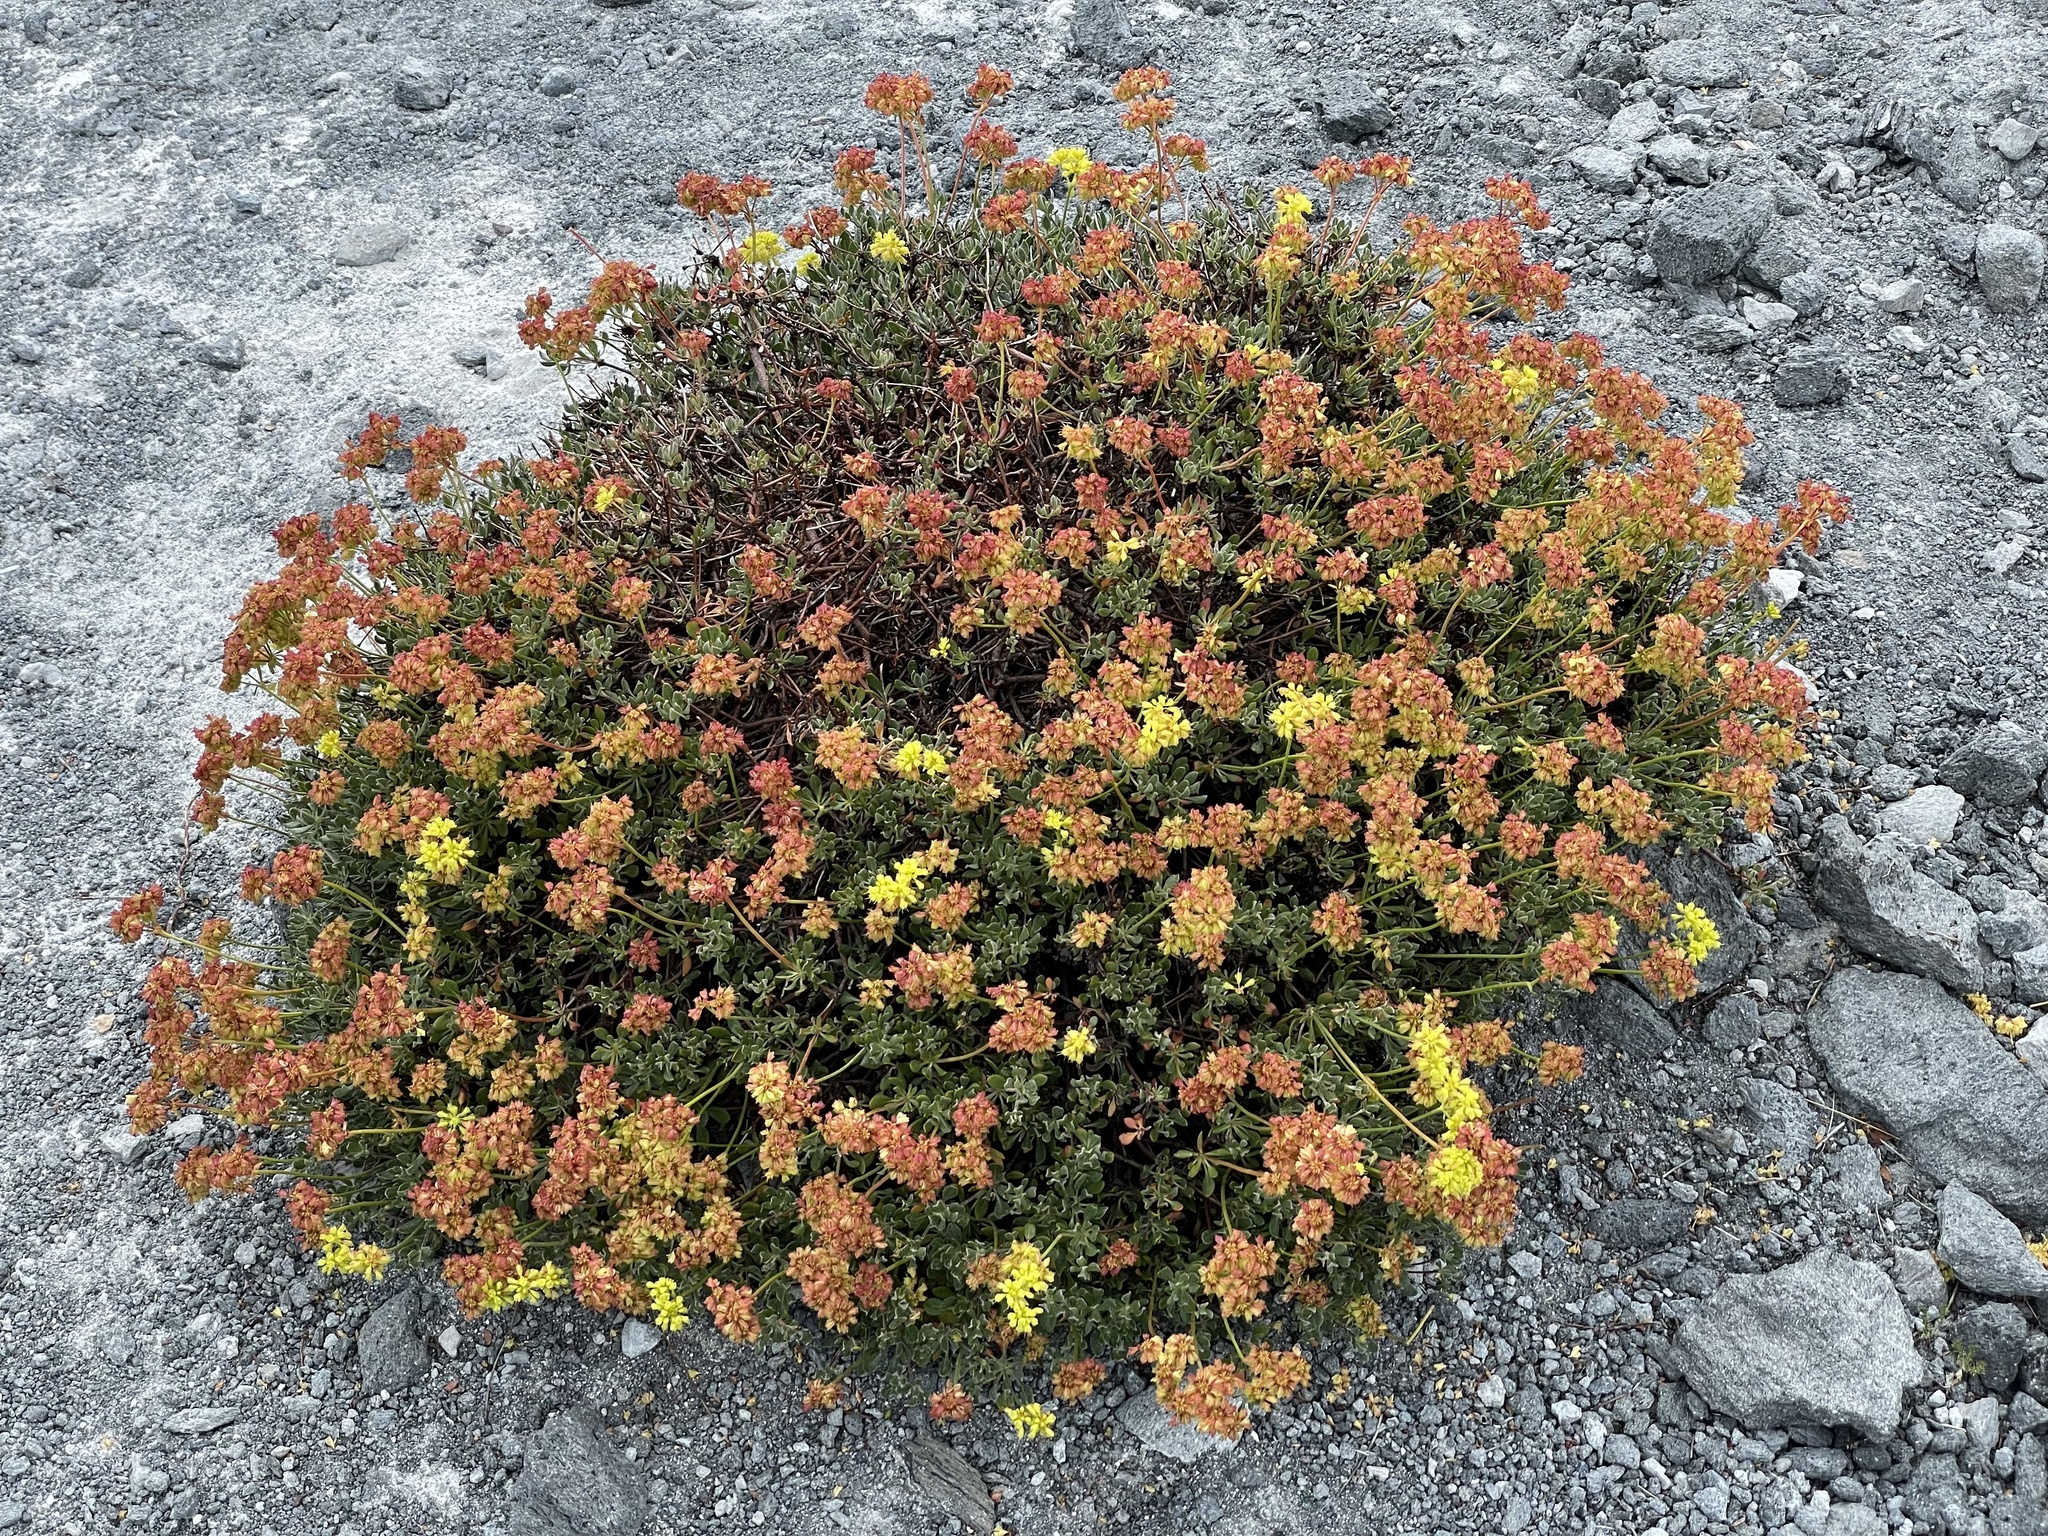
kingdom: Plantae
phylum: Tracheophyta
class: Magnoliopsida
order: Caryophyllales
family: Polygonaceae
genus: Eriogonum
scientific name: Eriogonum umbellatum
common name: Sulfur-buckwheat
